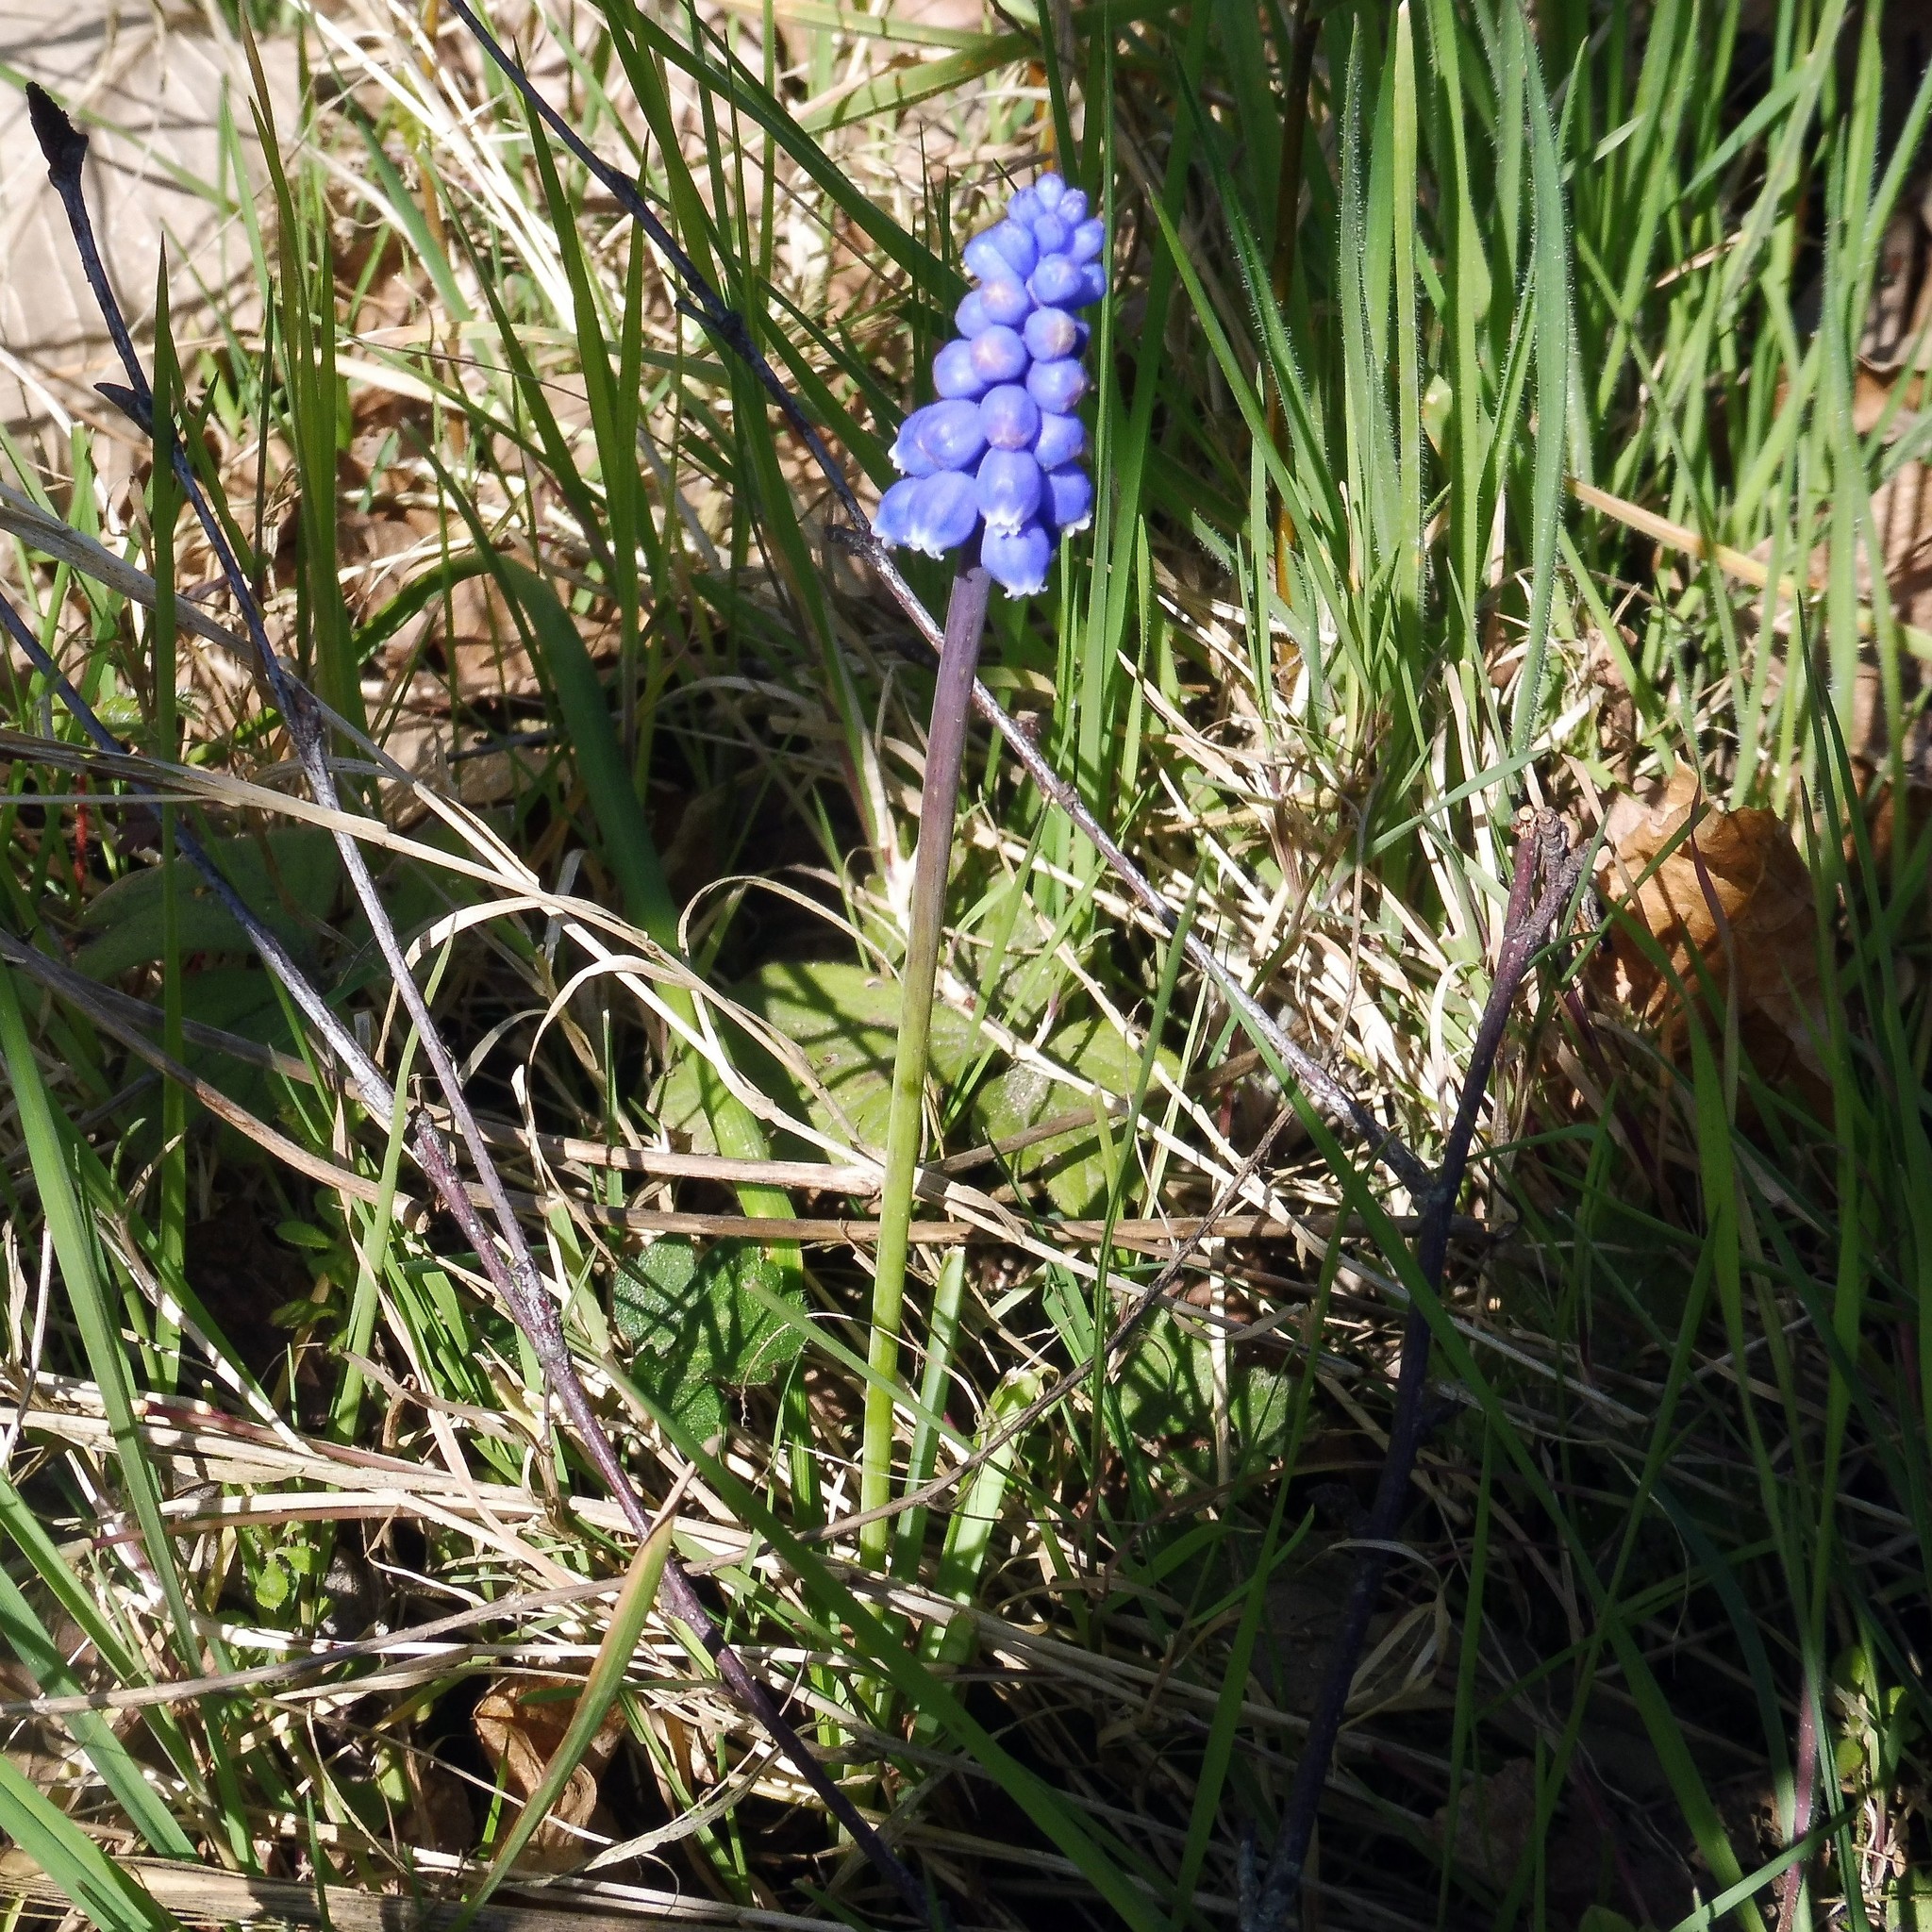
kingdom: Plantae
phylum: Tracheophyta
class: Liliopsida
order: Asparagales
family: Asparagaceae
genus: Muscari
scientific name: Muscari armeniacum
